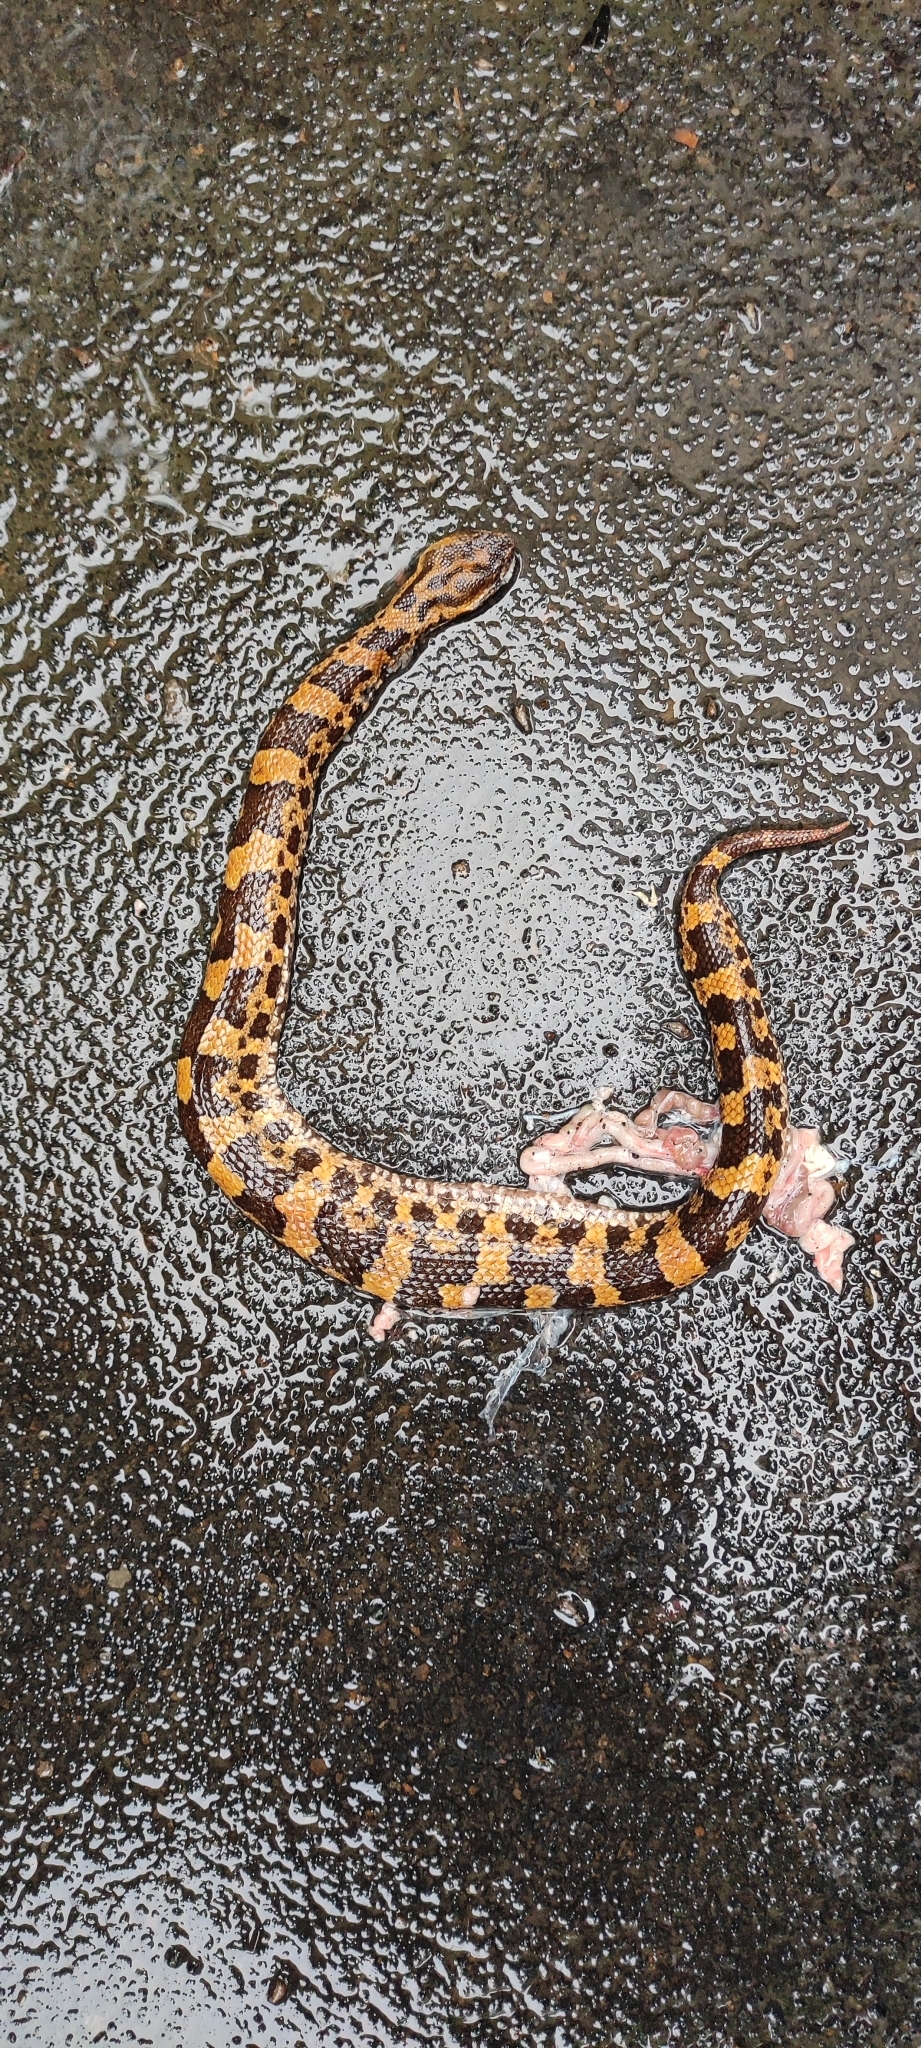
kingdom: Animalia
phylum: Chordata
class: Squamata
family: Viperidae
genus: Ovophis
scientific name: Ovophis monticola
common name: Mountain pit viper
